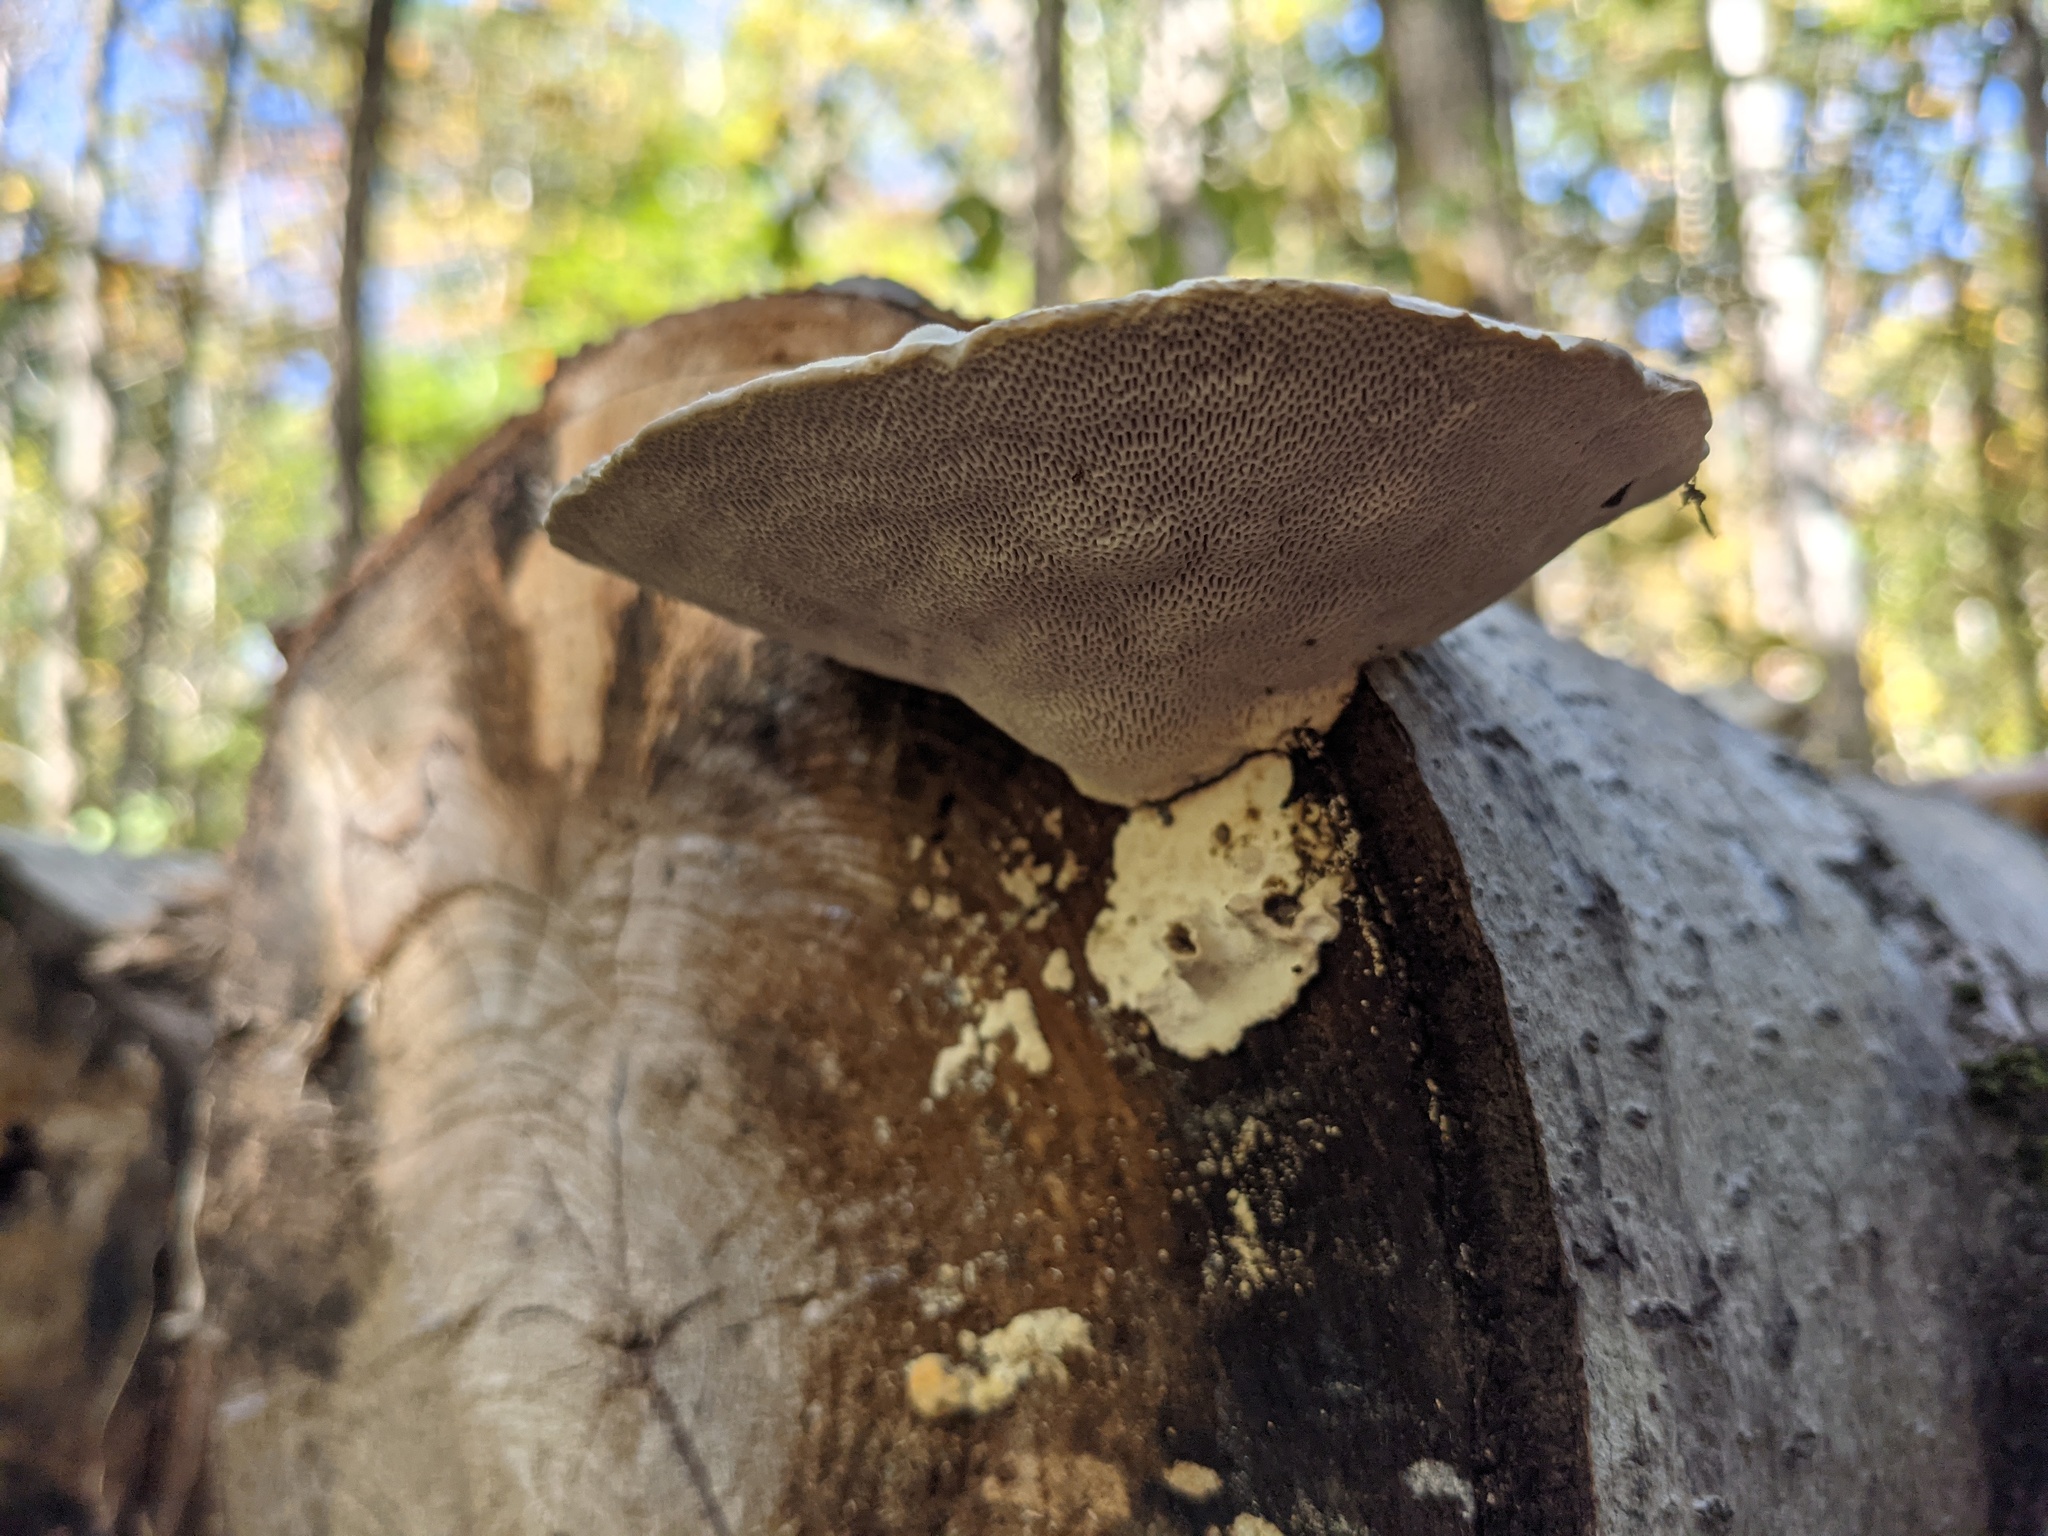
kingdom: Fungi
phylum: Basidiomycota
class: Agaricomycetes
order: Polyporales
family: Polyporaceae
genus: Trametes
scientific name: Trametes gibbosa
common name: Lumpy bracket
